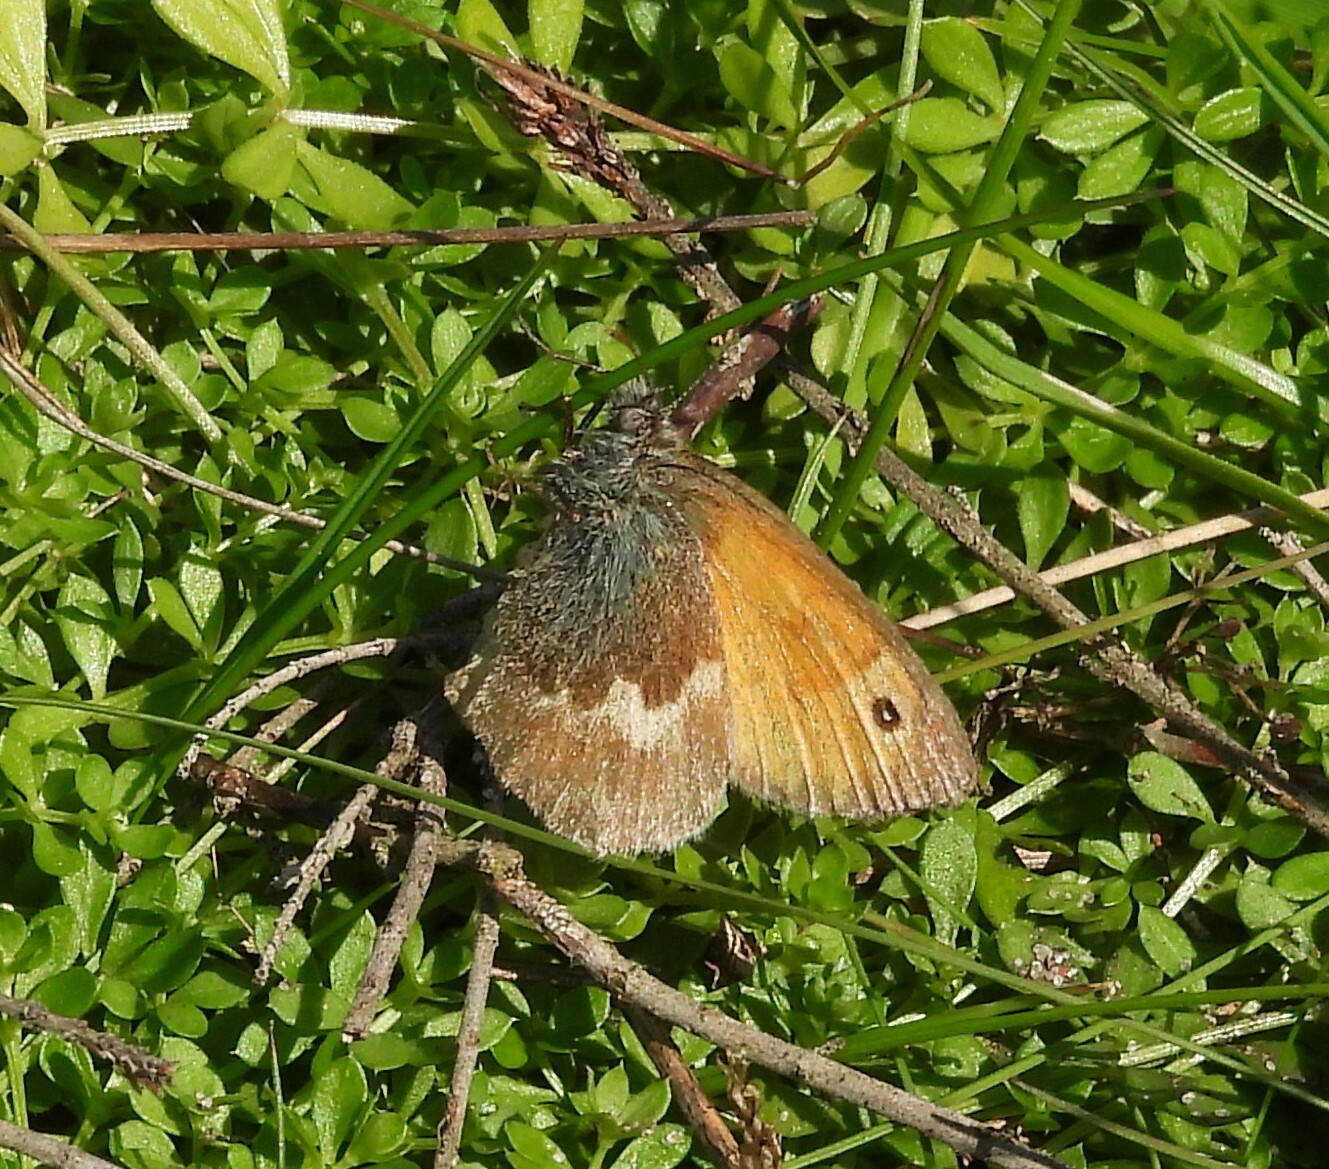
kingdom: Animalia
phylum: Arthropoda
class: Insecta
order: Lepidoptera
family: Nymphalidae
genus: Coenonympha
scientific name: Coenonympha pamphilus
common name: Small heath
